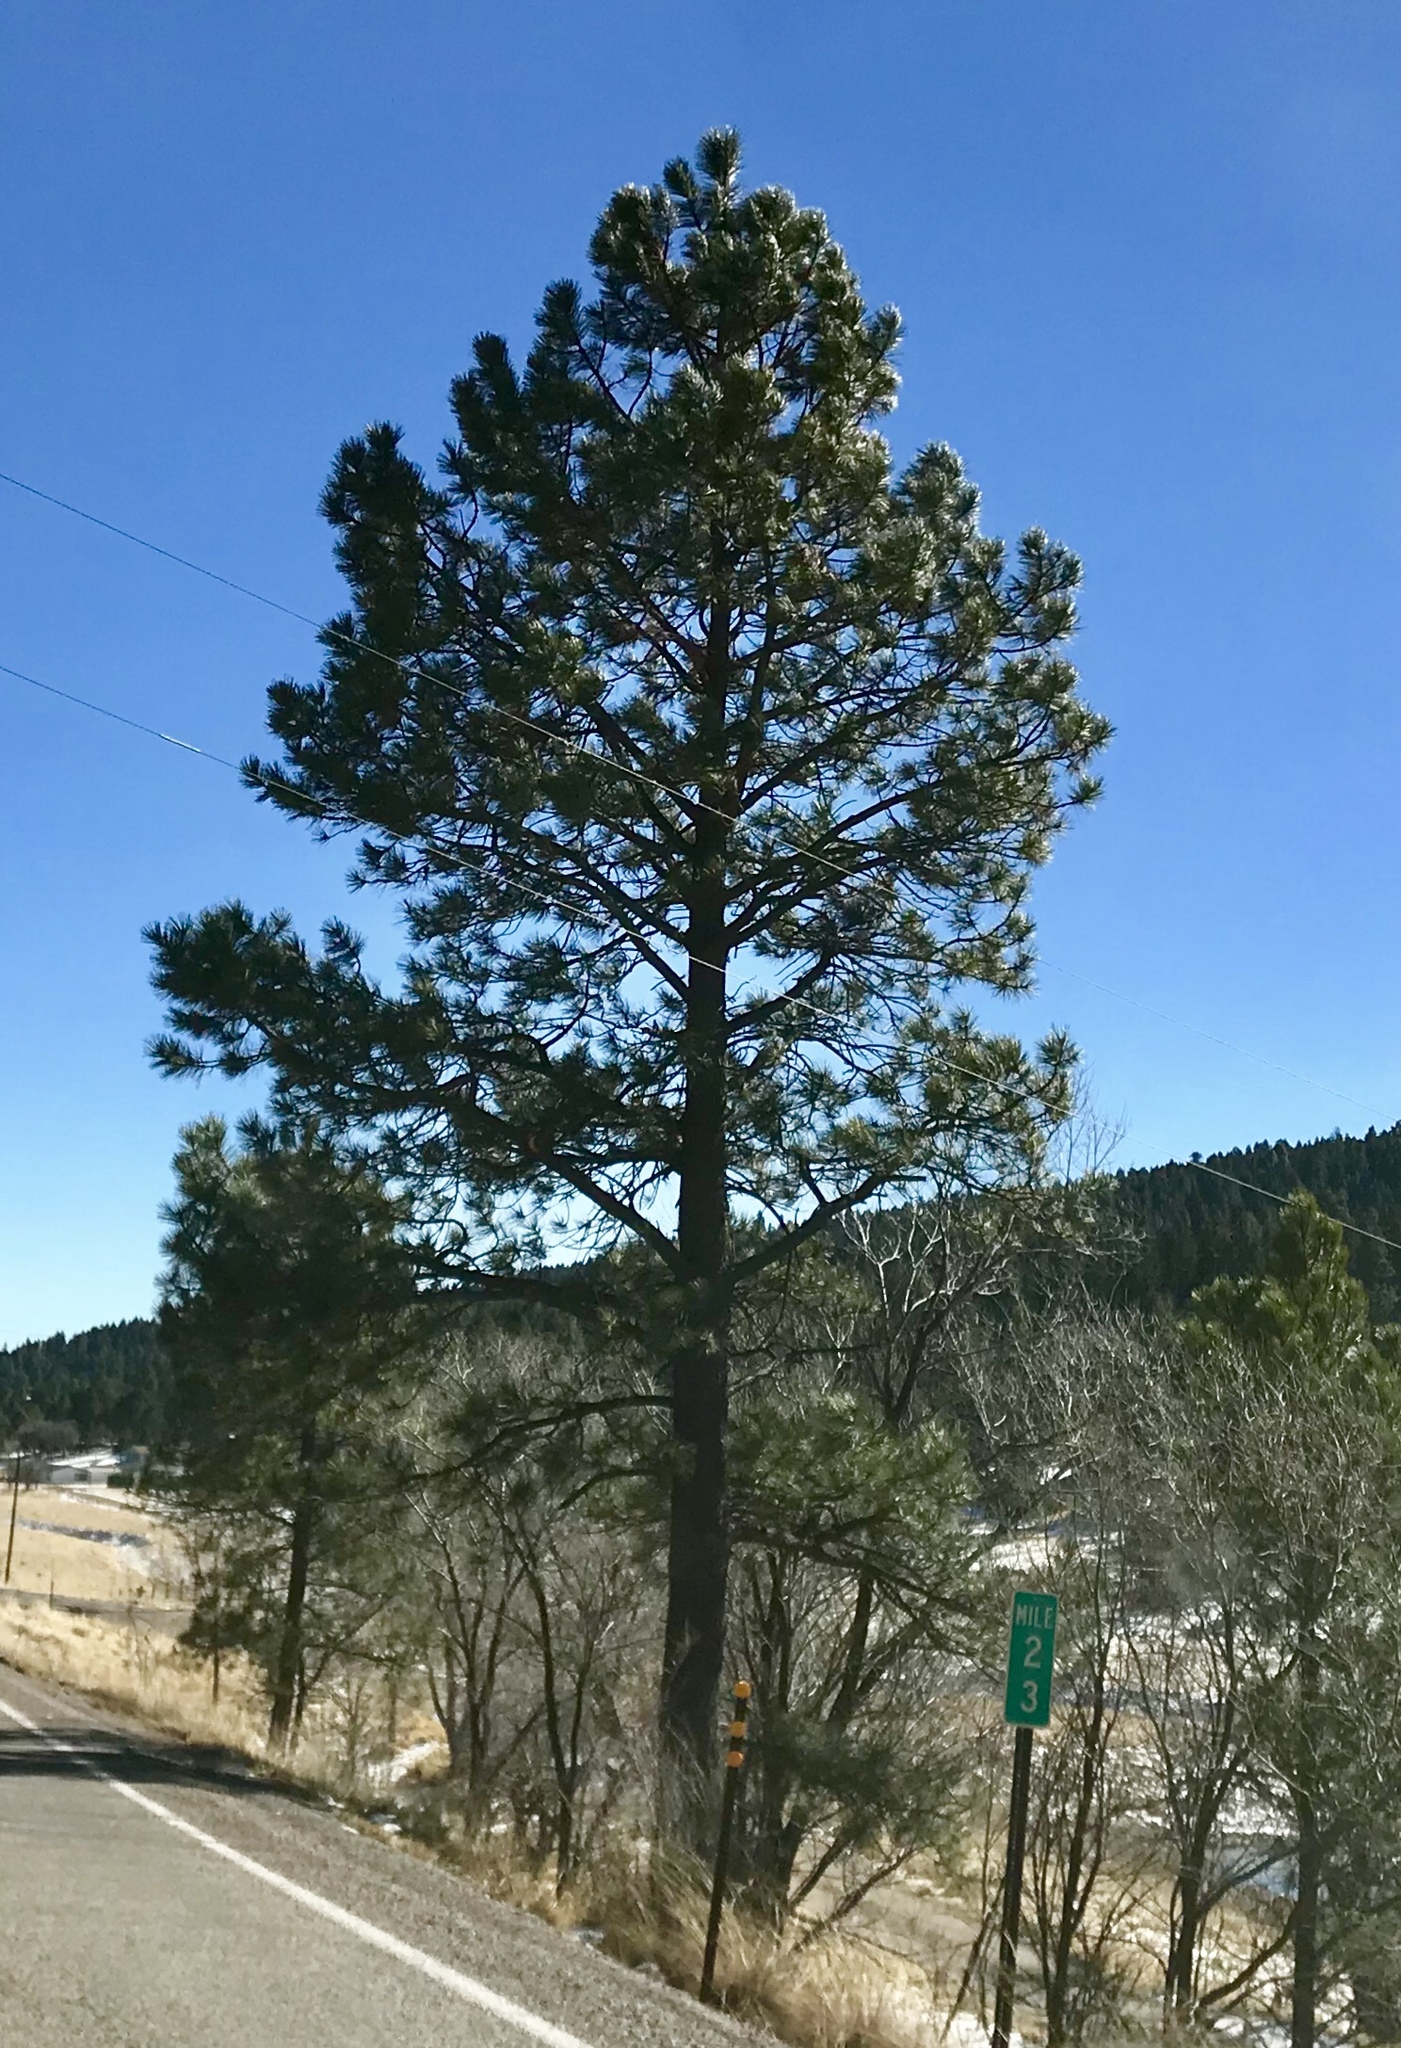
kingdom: Plantae
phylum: Tracheophyta
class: Pinopsida
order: Pinales
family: Pinaceae
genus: Pinus
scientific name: Pinus ponderosa
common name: Western yellow-pine
